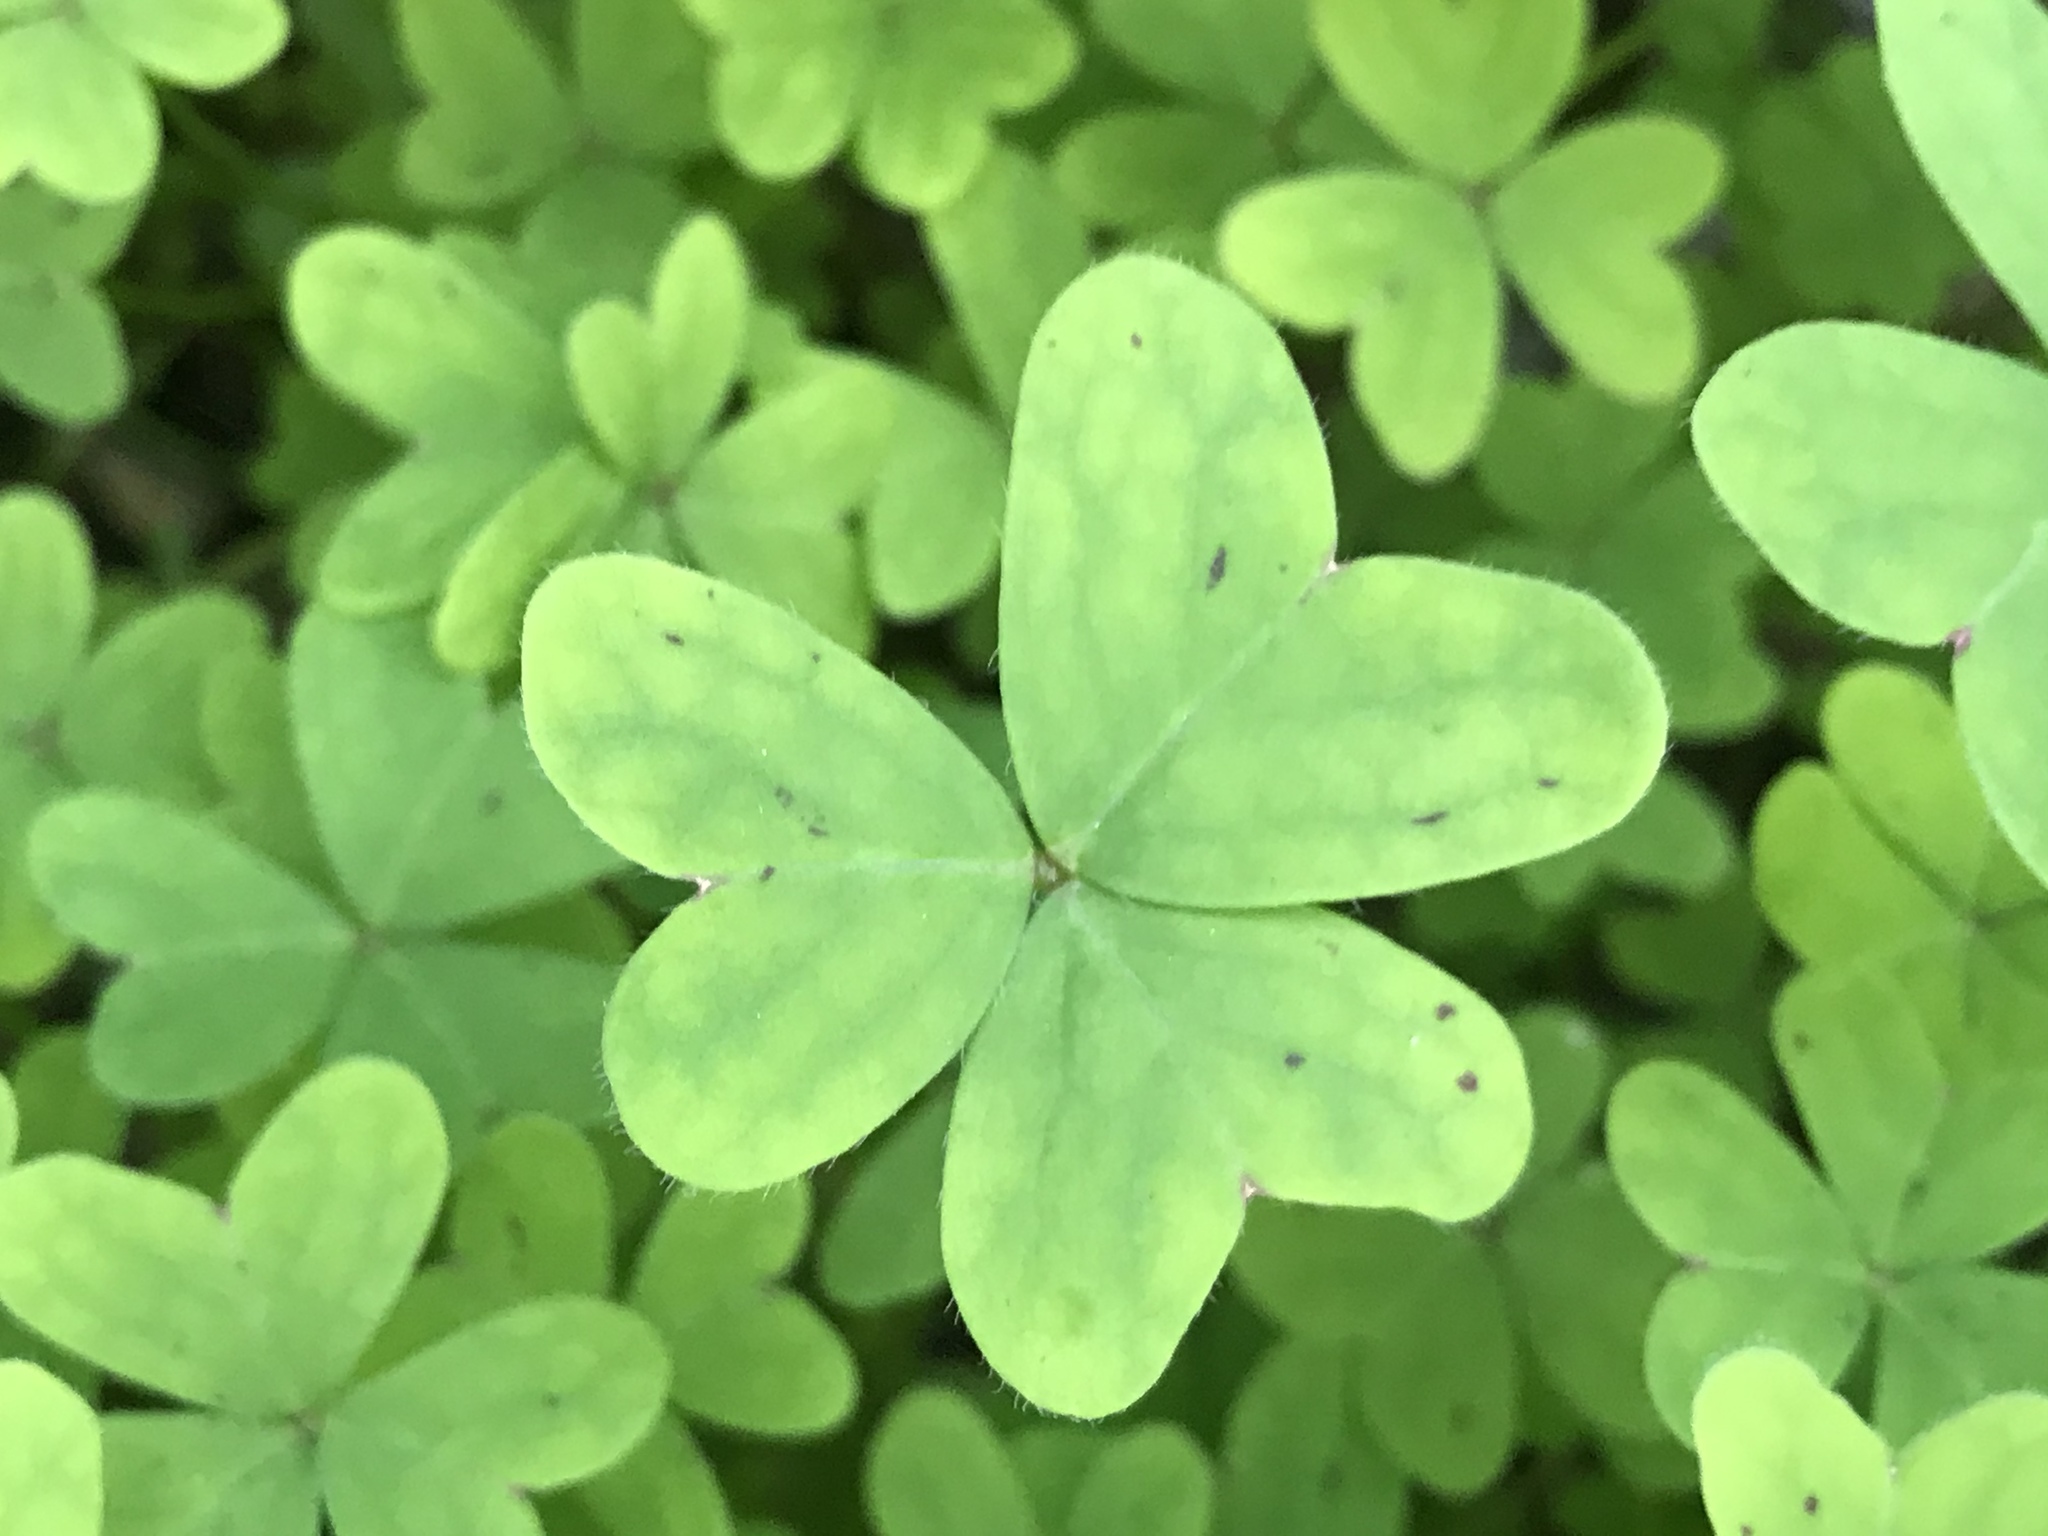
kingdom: Plantae
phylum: Tracheophyta
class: Magnoliopsida
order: Oxalidales
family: Oxalidaceae
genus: Oxalis
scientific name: Oxalis pes-caprae
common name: Bermuda-buttercup
